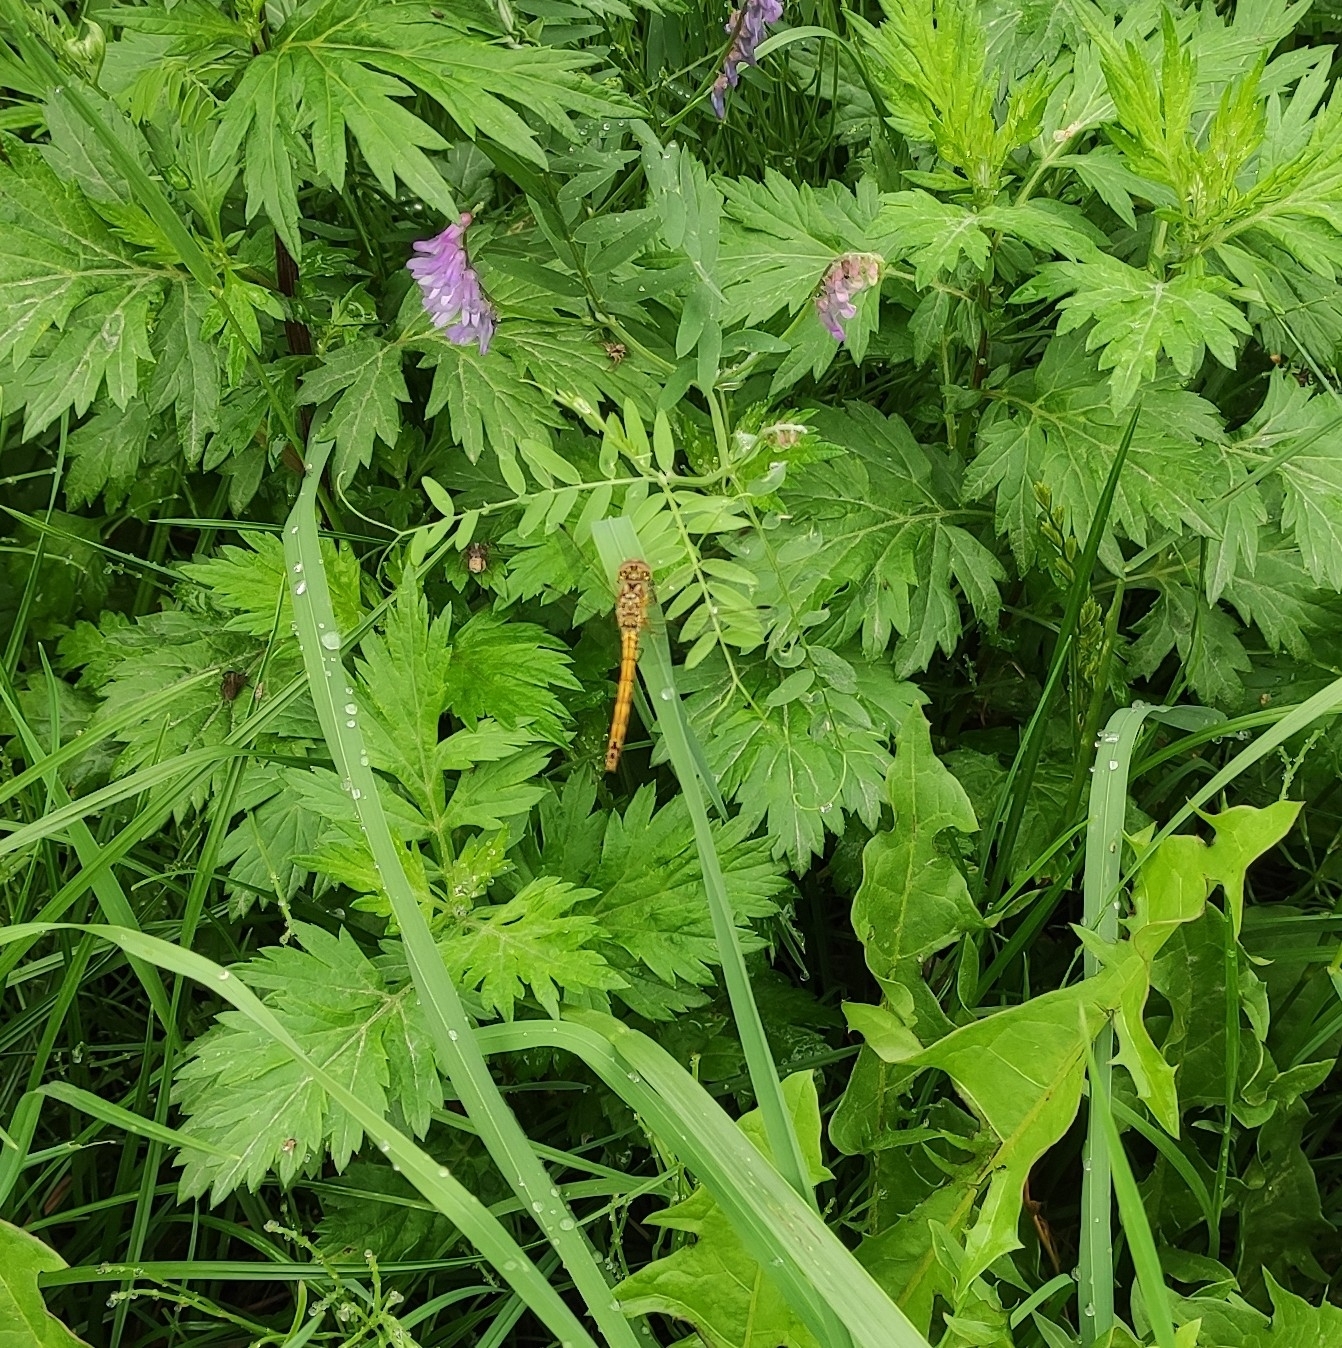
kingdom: Animalia
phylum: Arthropoda
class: Insecta
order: Odonata
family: Libellulidae
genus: Sympetrum
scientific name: Sympetrum vulgatum
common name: Vagrant darter
